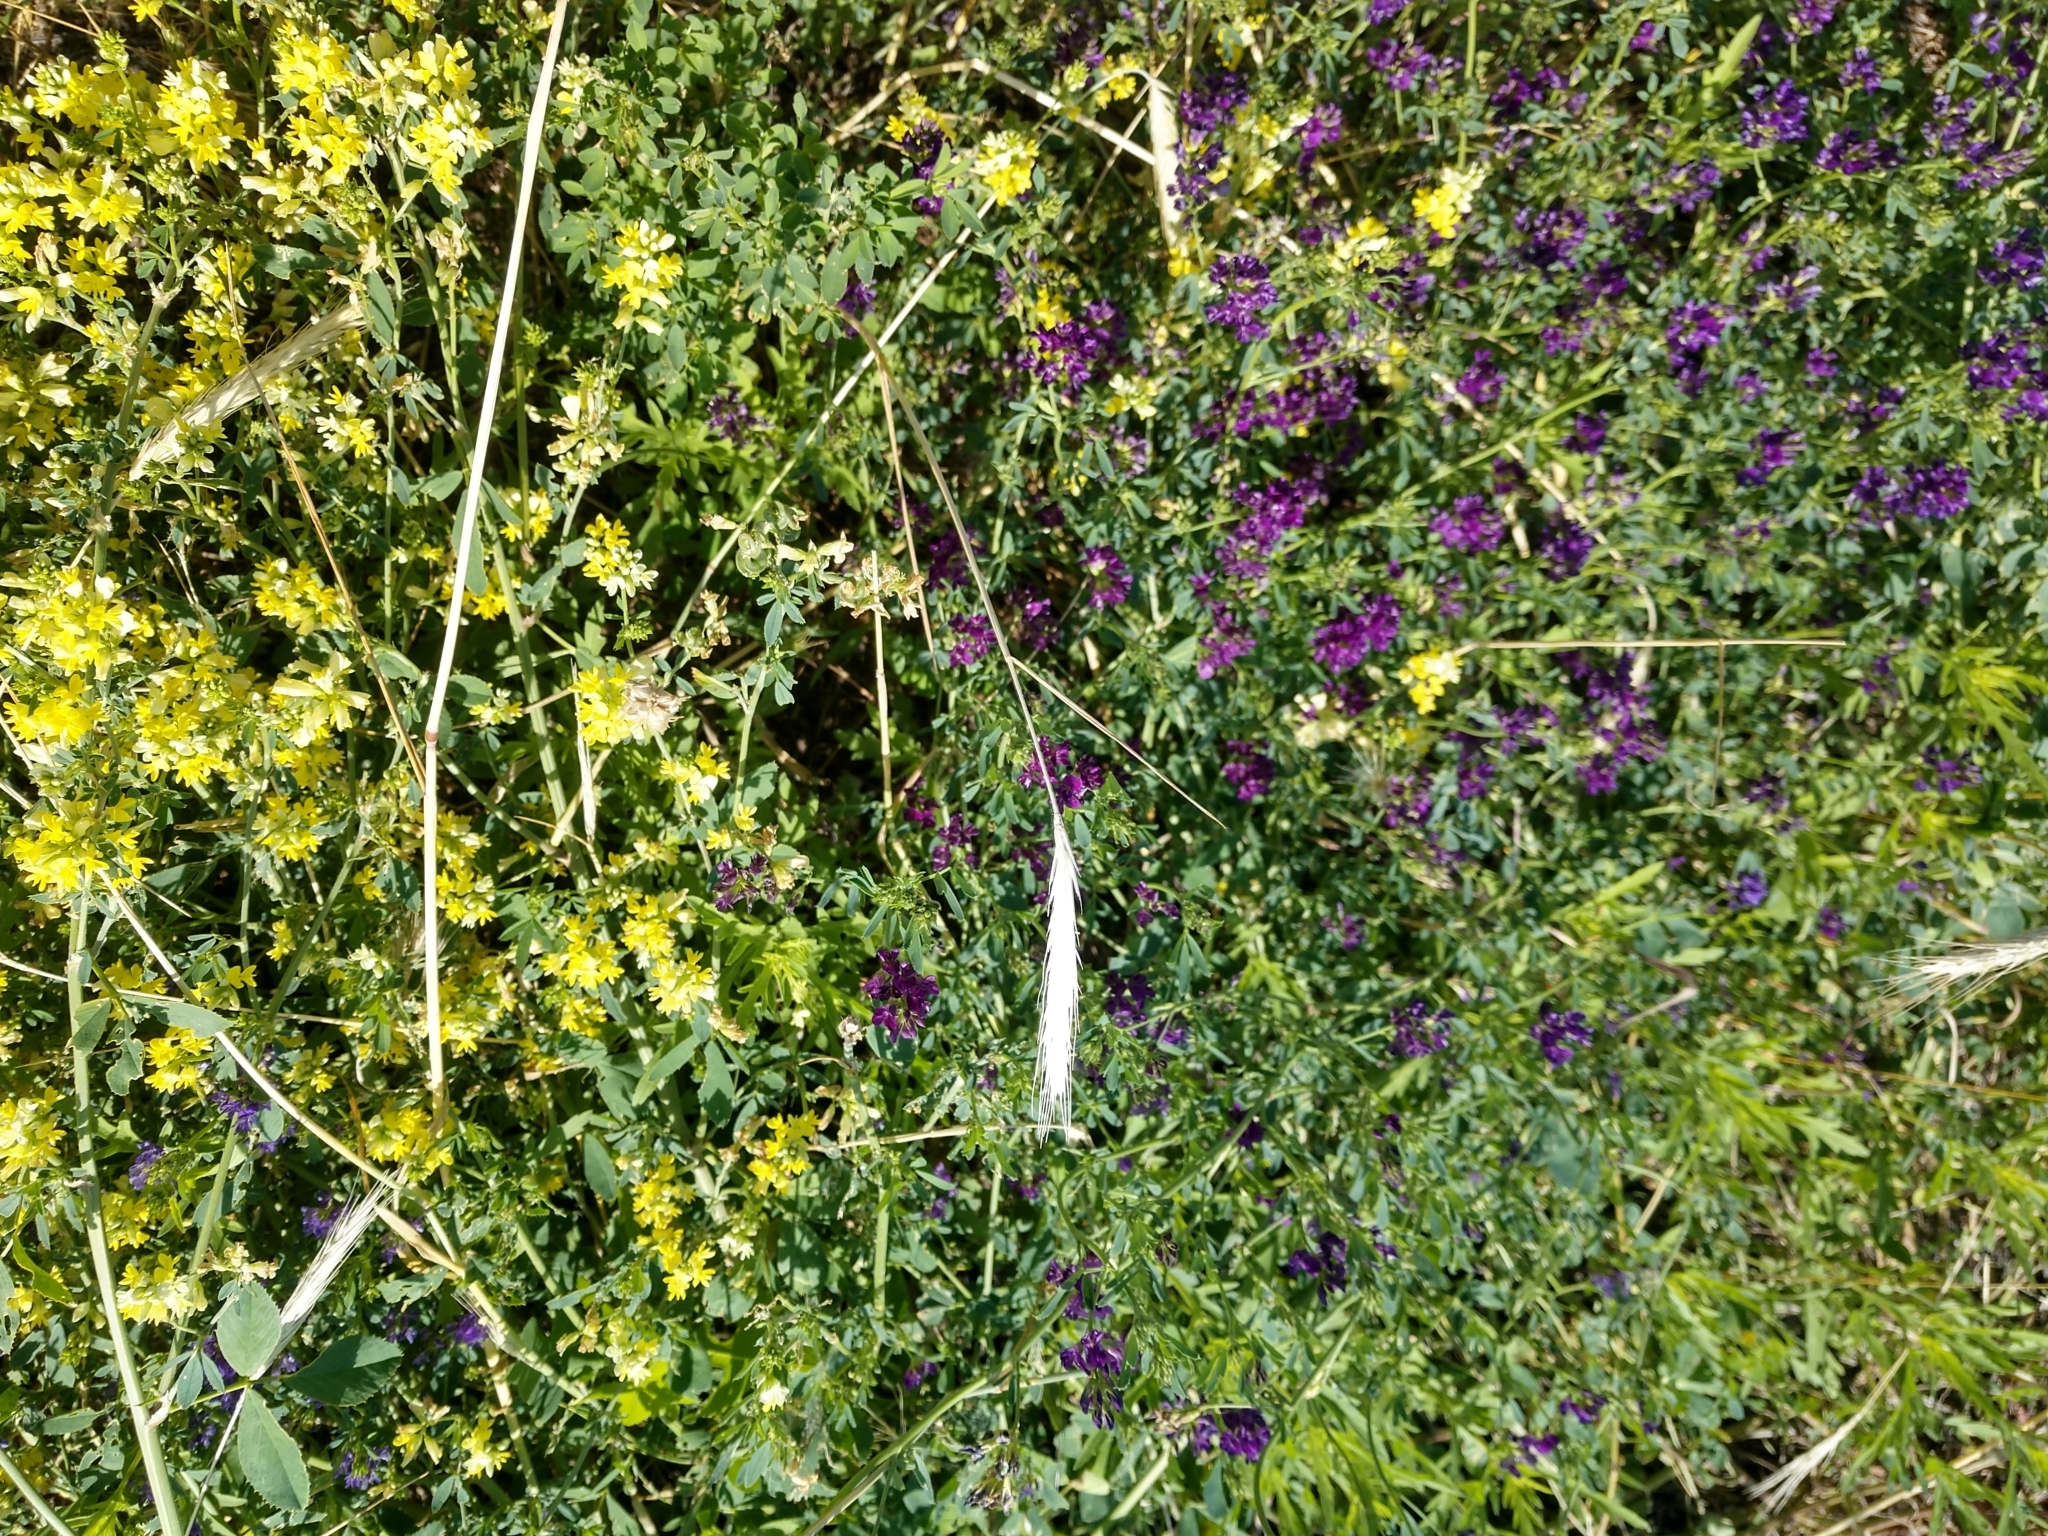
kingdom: Plantae
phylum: Tracheophyta
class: Magnoliopsida
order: Fabales
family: Fabaceae
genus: Medicago
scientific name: Medicago sativa
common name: Alfalfa
